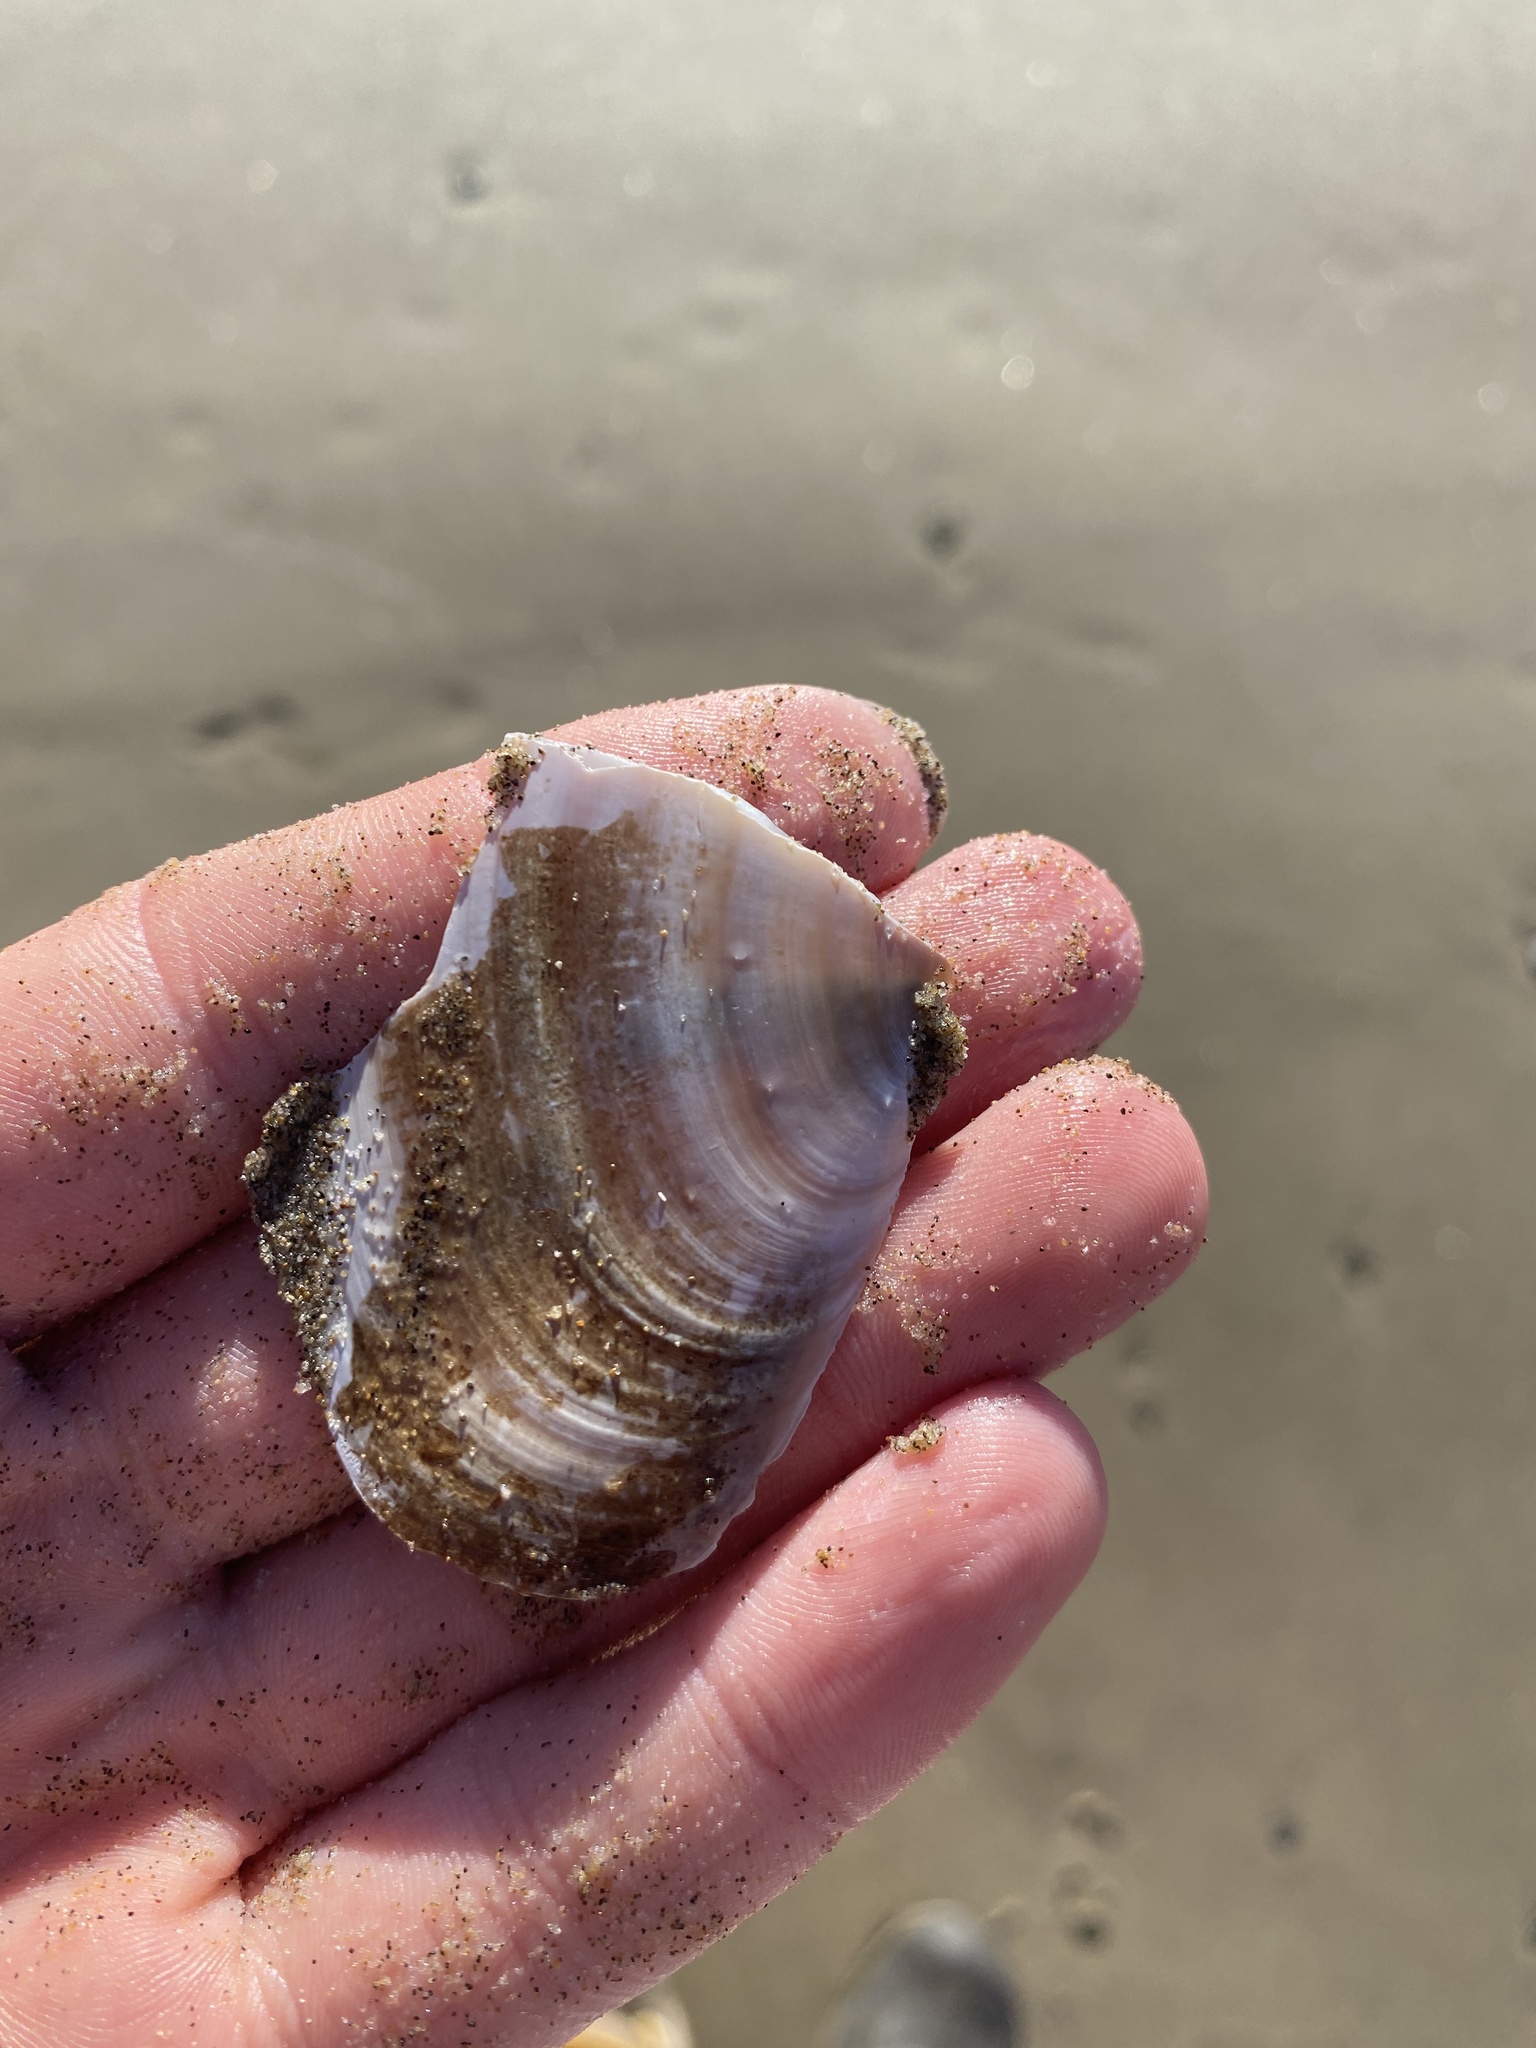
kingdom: Animalia
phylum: Mollusca
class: Bivalvia
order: Adapedonta
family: Pharidae
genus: Siliqua
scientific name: Siliqua patula
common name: Pacific razor clam
